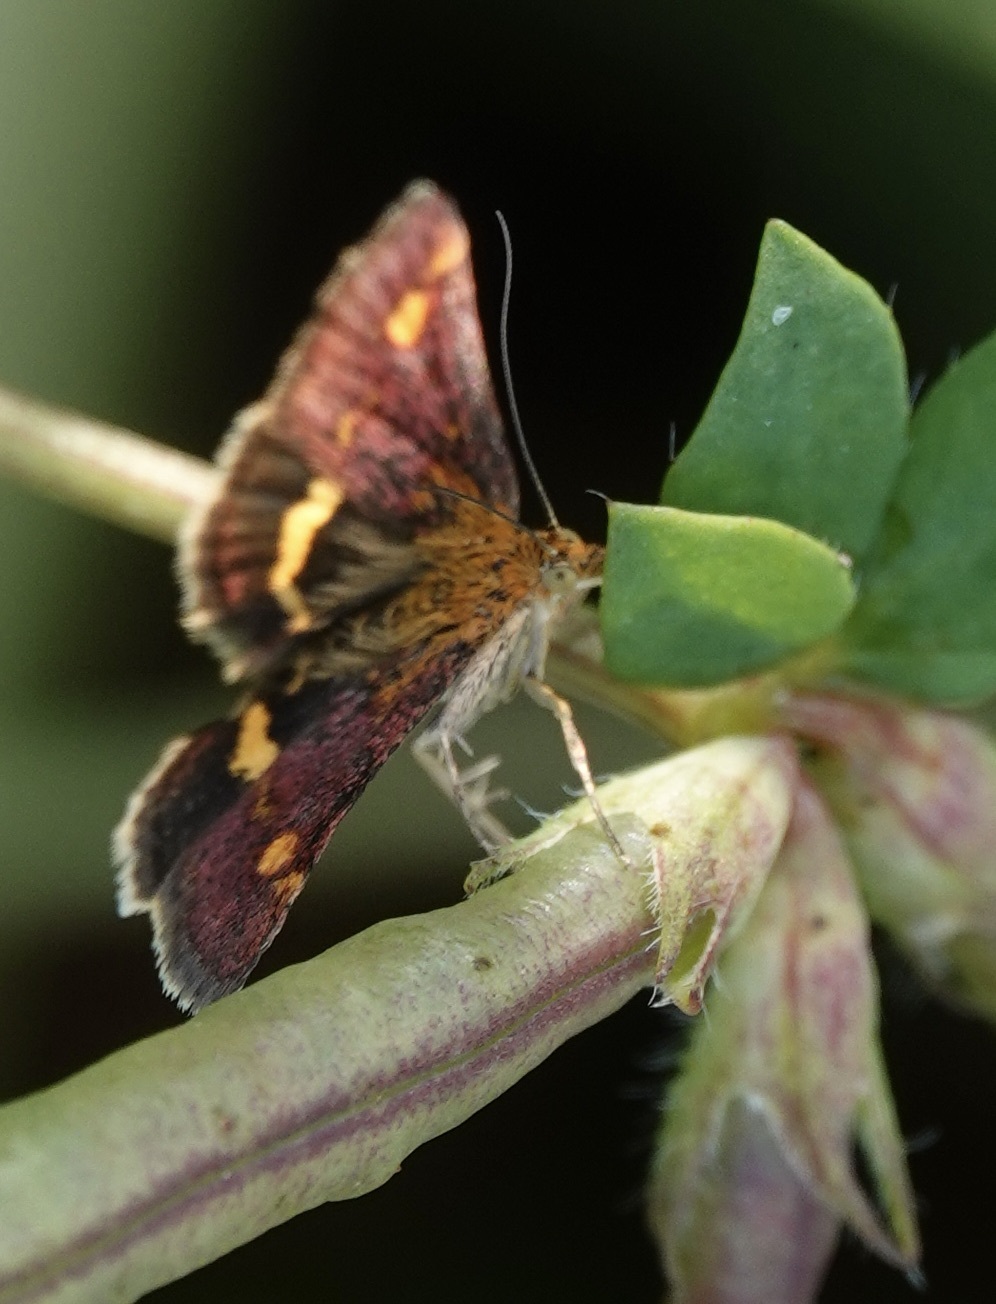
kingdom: Animalia
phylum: Arthropoda
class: Insecta
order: Lepidoptera
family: Crambidae
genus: Pyrausta
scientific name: Pyrausta aurata
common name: Small purple & gold
